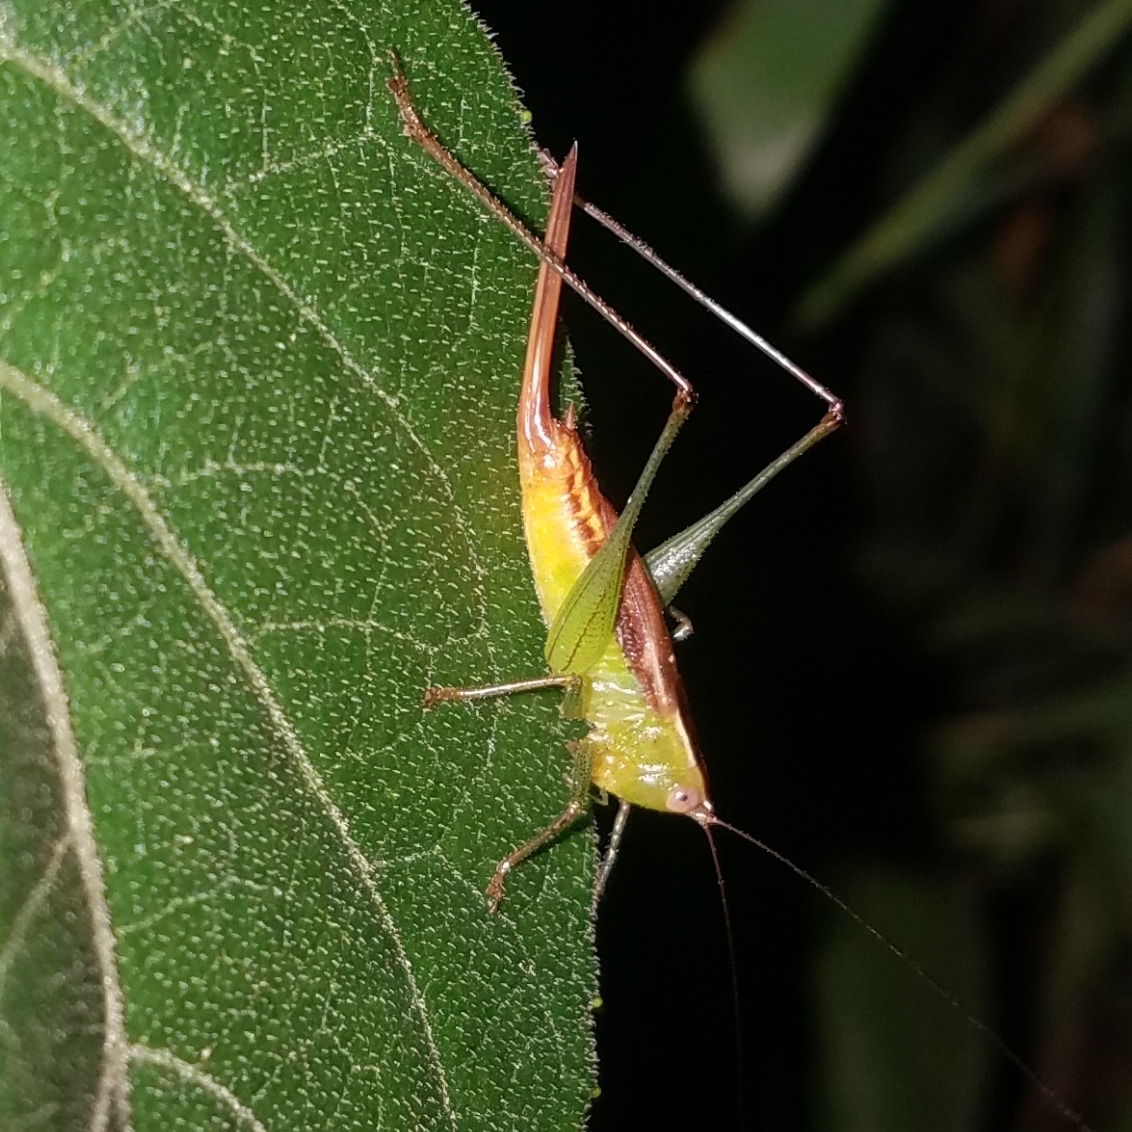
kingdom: Animalia
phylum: Arthropoda
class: Insecta
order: Orthoptera
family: Tettigoniidae
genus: Conocephalus
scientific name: Conocephalus brevipennis
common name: Short-winged meadow katydid
